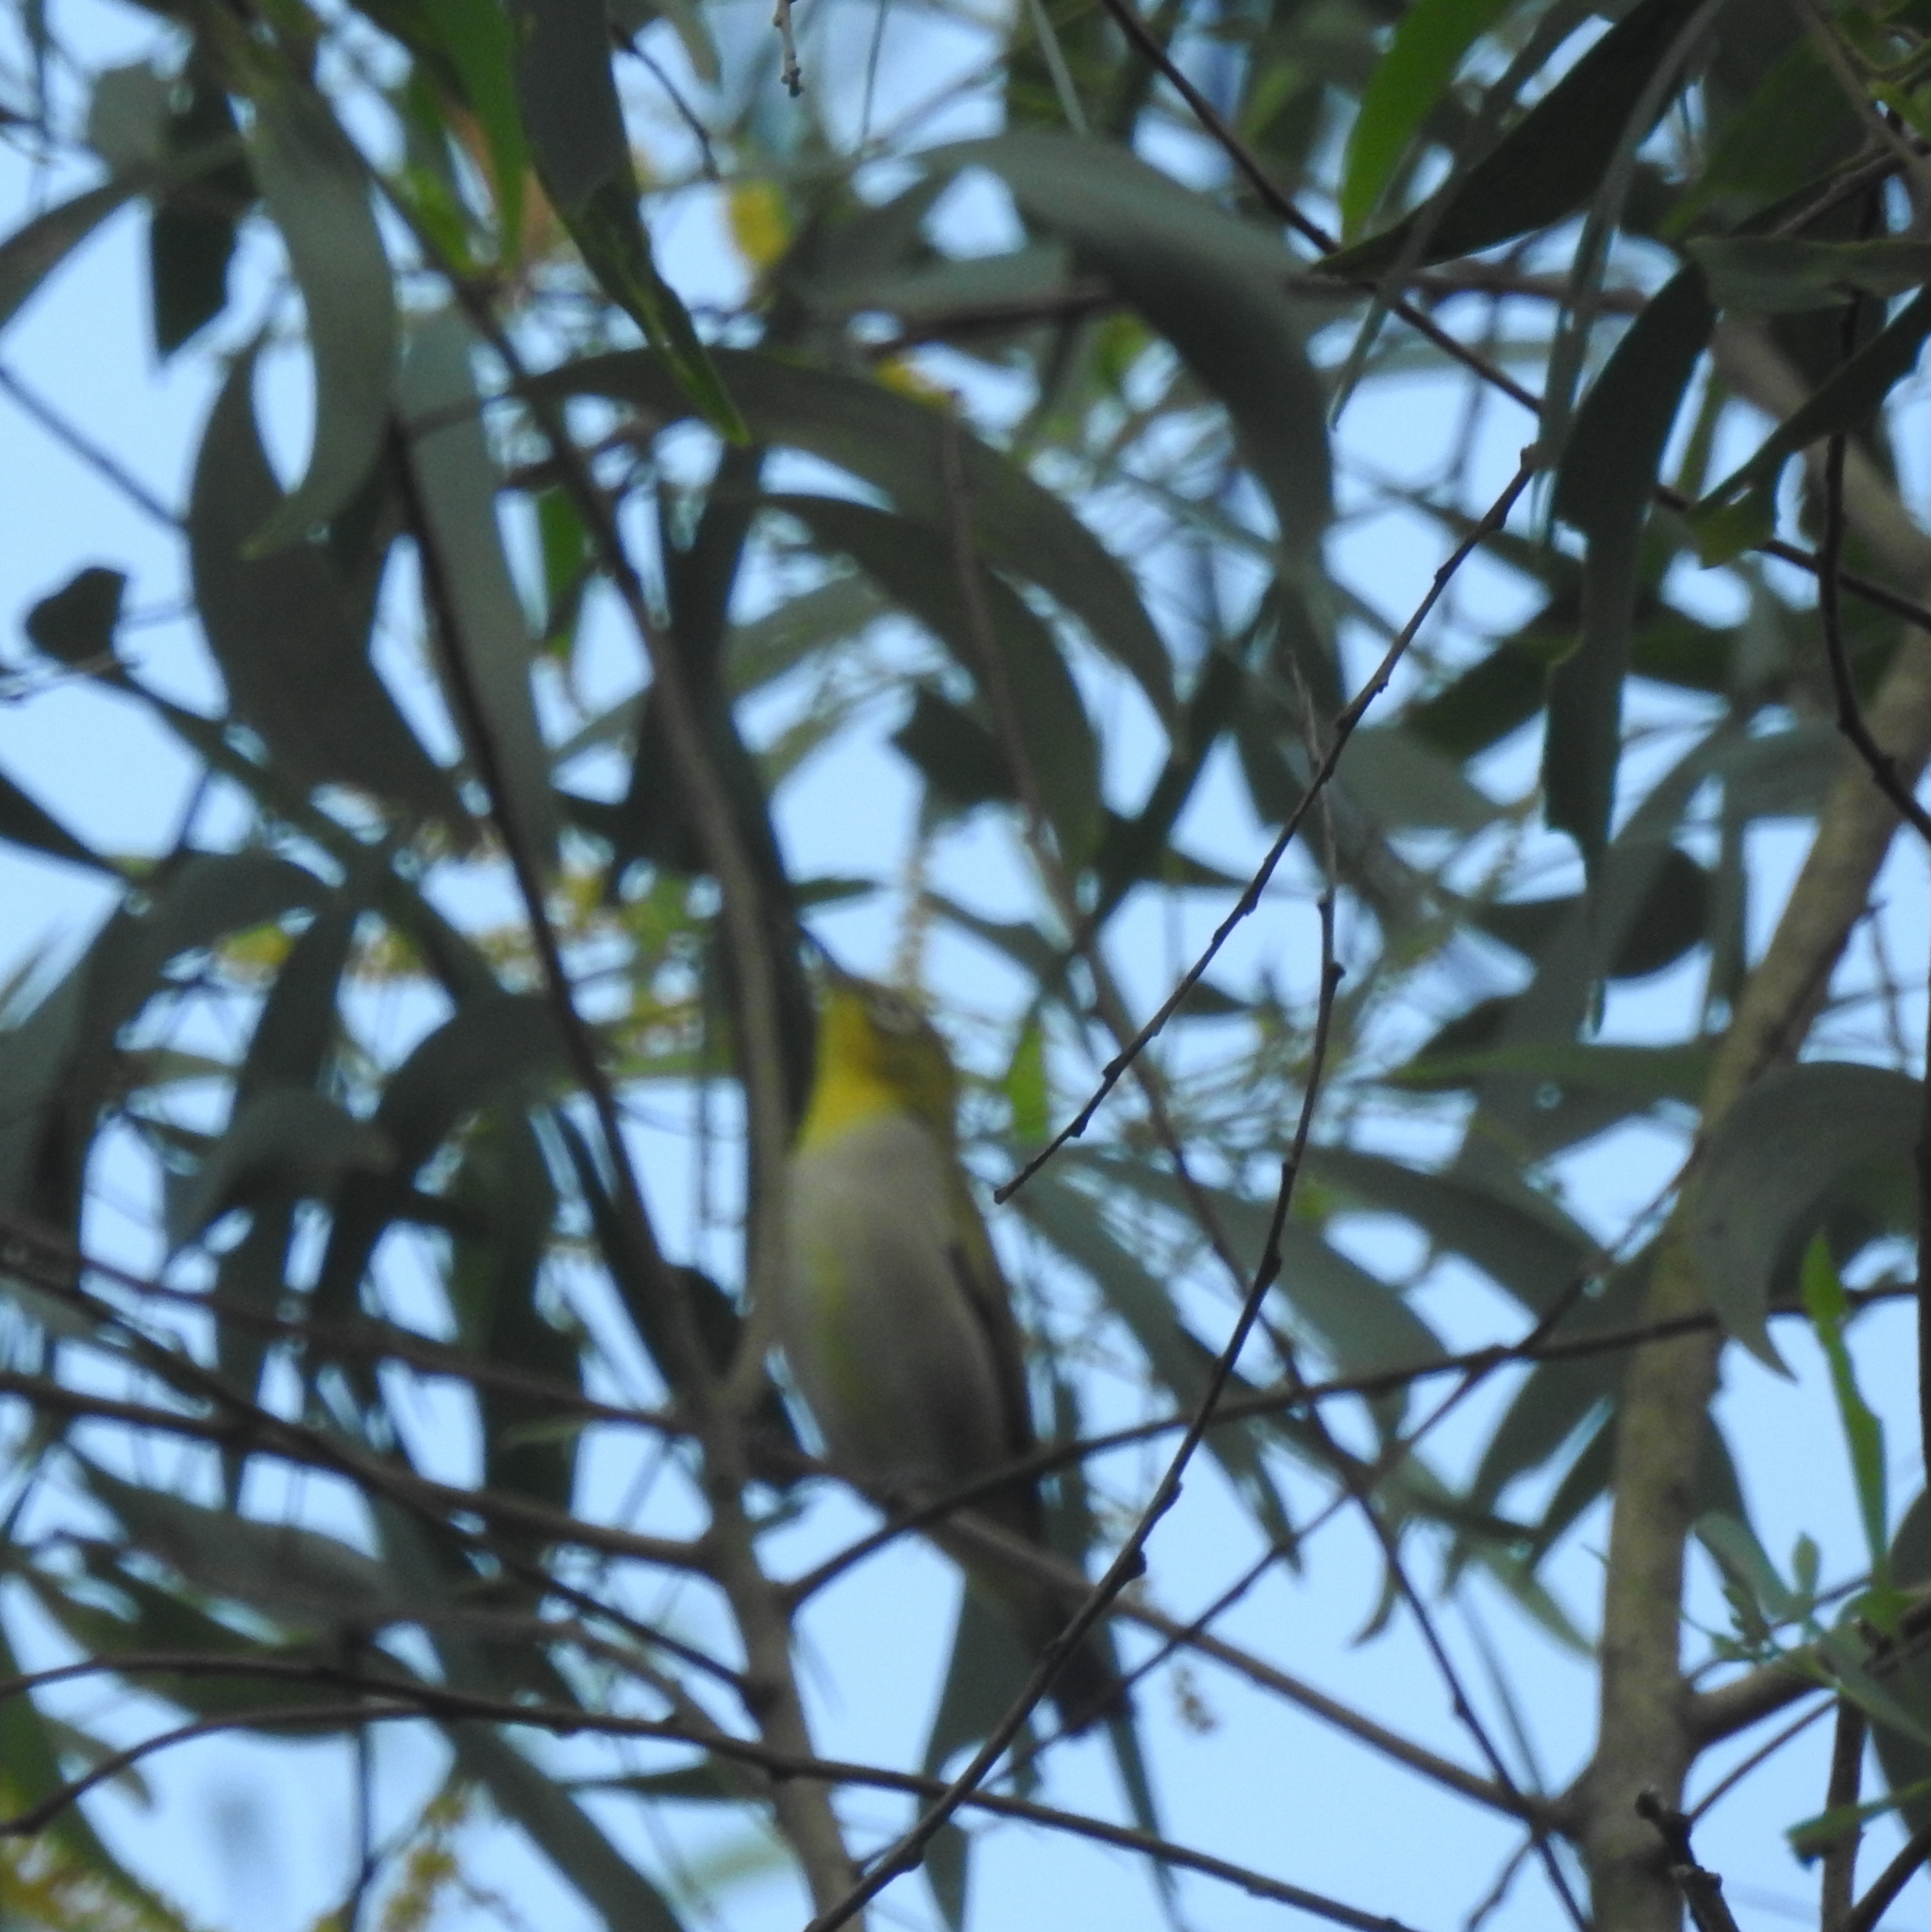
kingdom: Animalia
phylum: Chordata
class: Aves
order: Passeriformes
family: Zosteropidae
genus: Zosterops
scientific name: Zosterops simplex
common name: Swinhoe's white-eye
